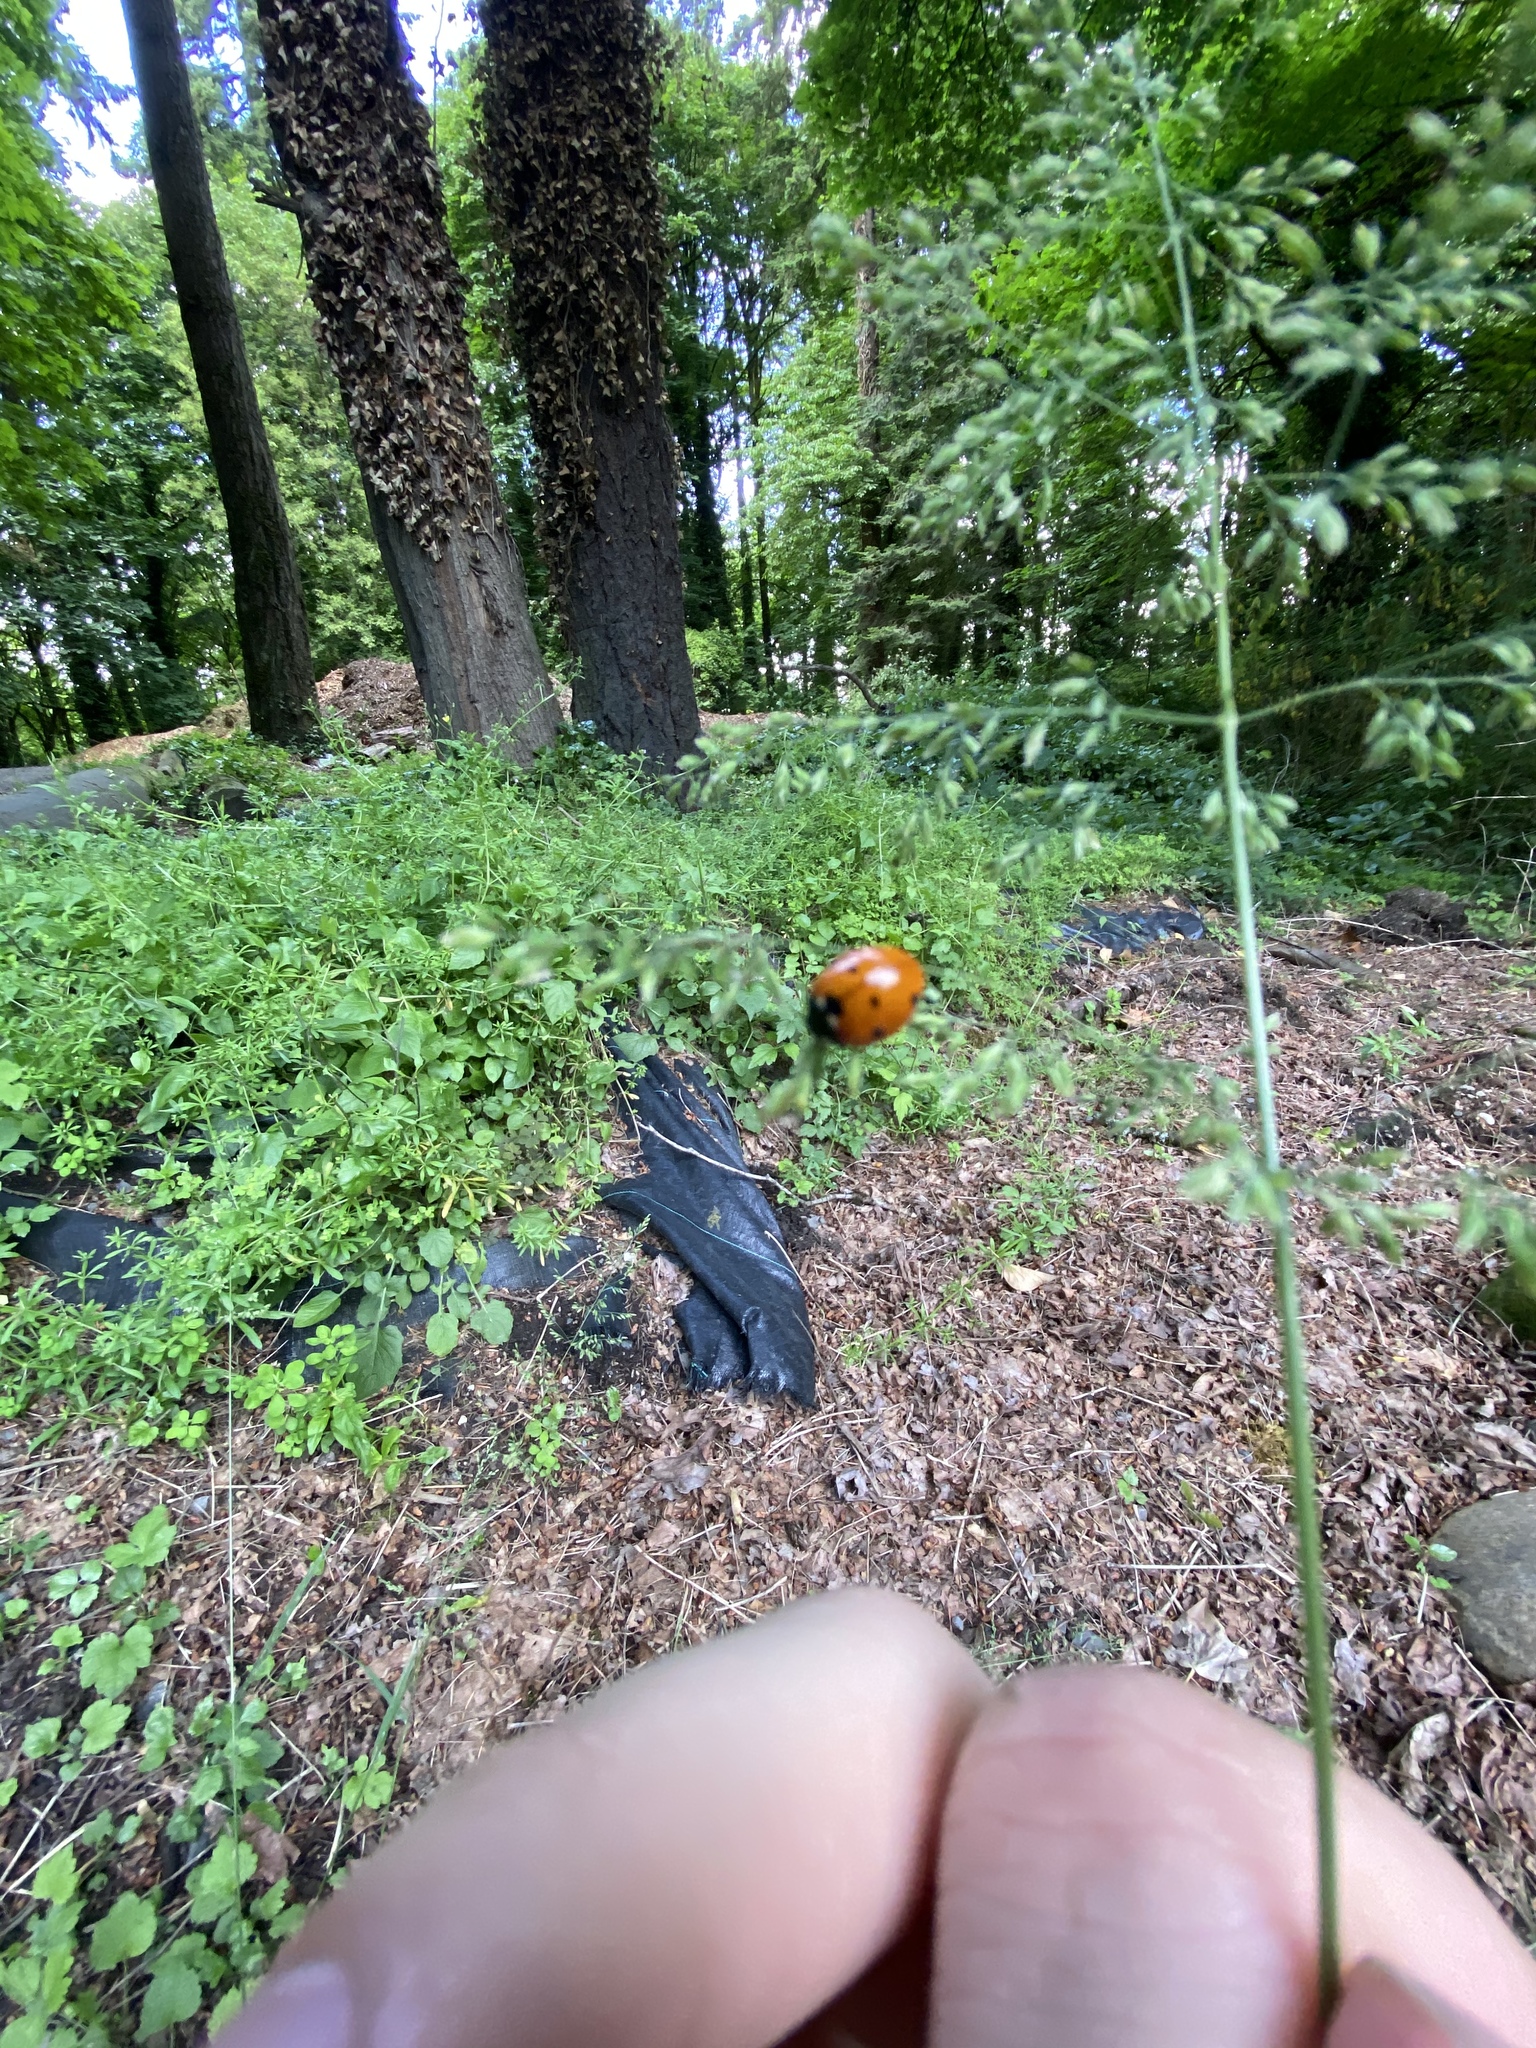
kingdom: Animalia
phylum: Arthropoda
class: Insecta
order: Coleoptera
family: Coccinellidae
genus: Coccinella
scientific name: Coccinella septempunctata
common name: Sevenspotted lady beetle
